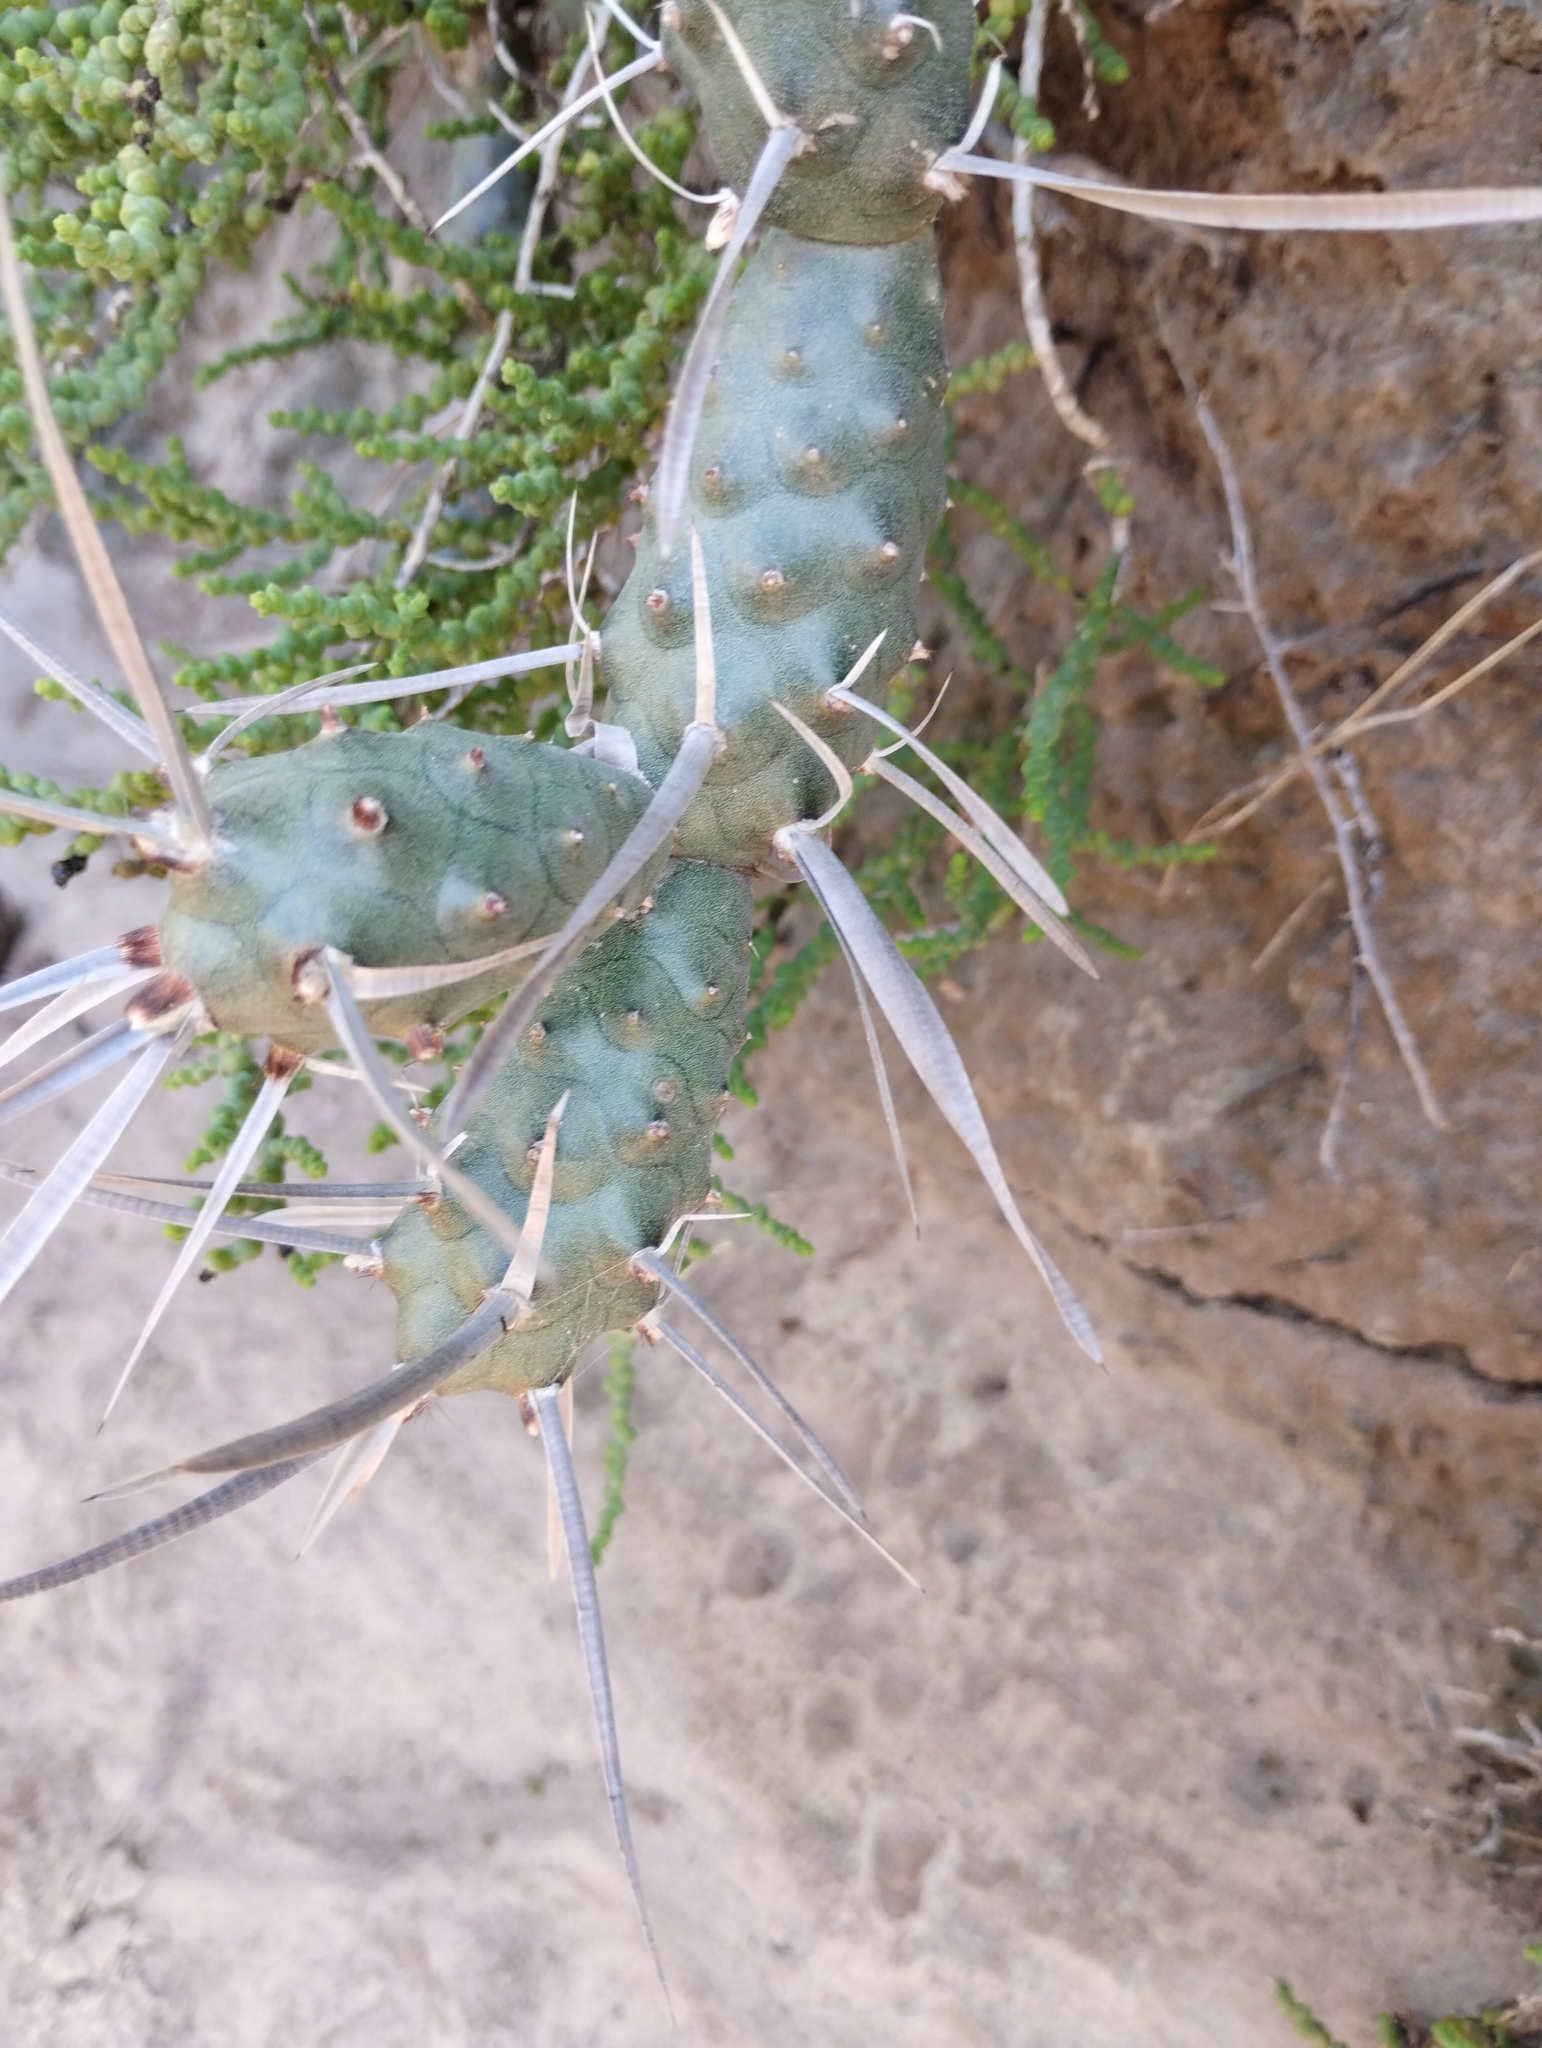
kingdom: Plantae
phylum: Tracheophyta
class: Magnoliopsida
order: Caryophyllales
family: Cactaceae
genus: Tephrocactus
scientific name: Tephrocactus articulatus
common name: Paper cactus
